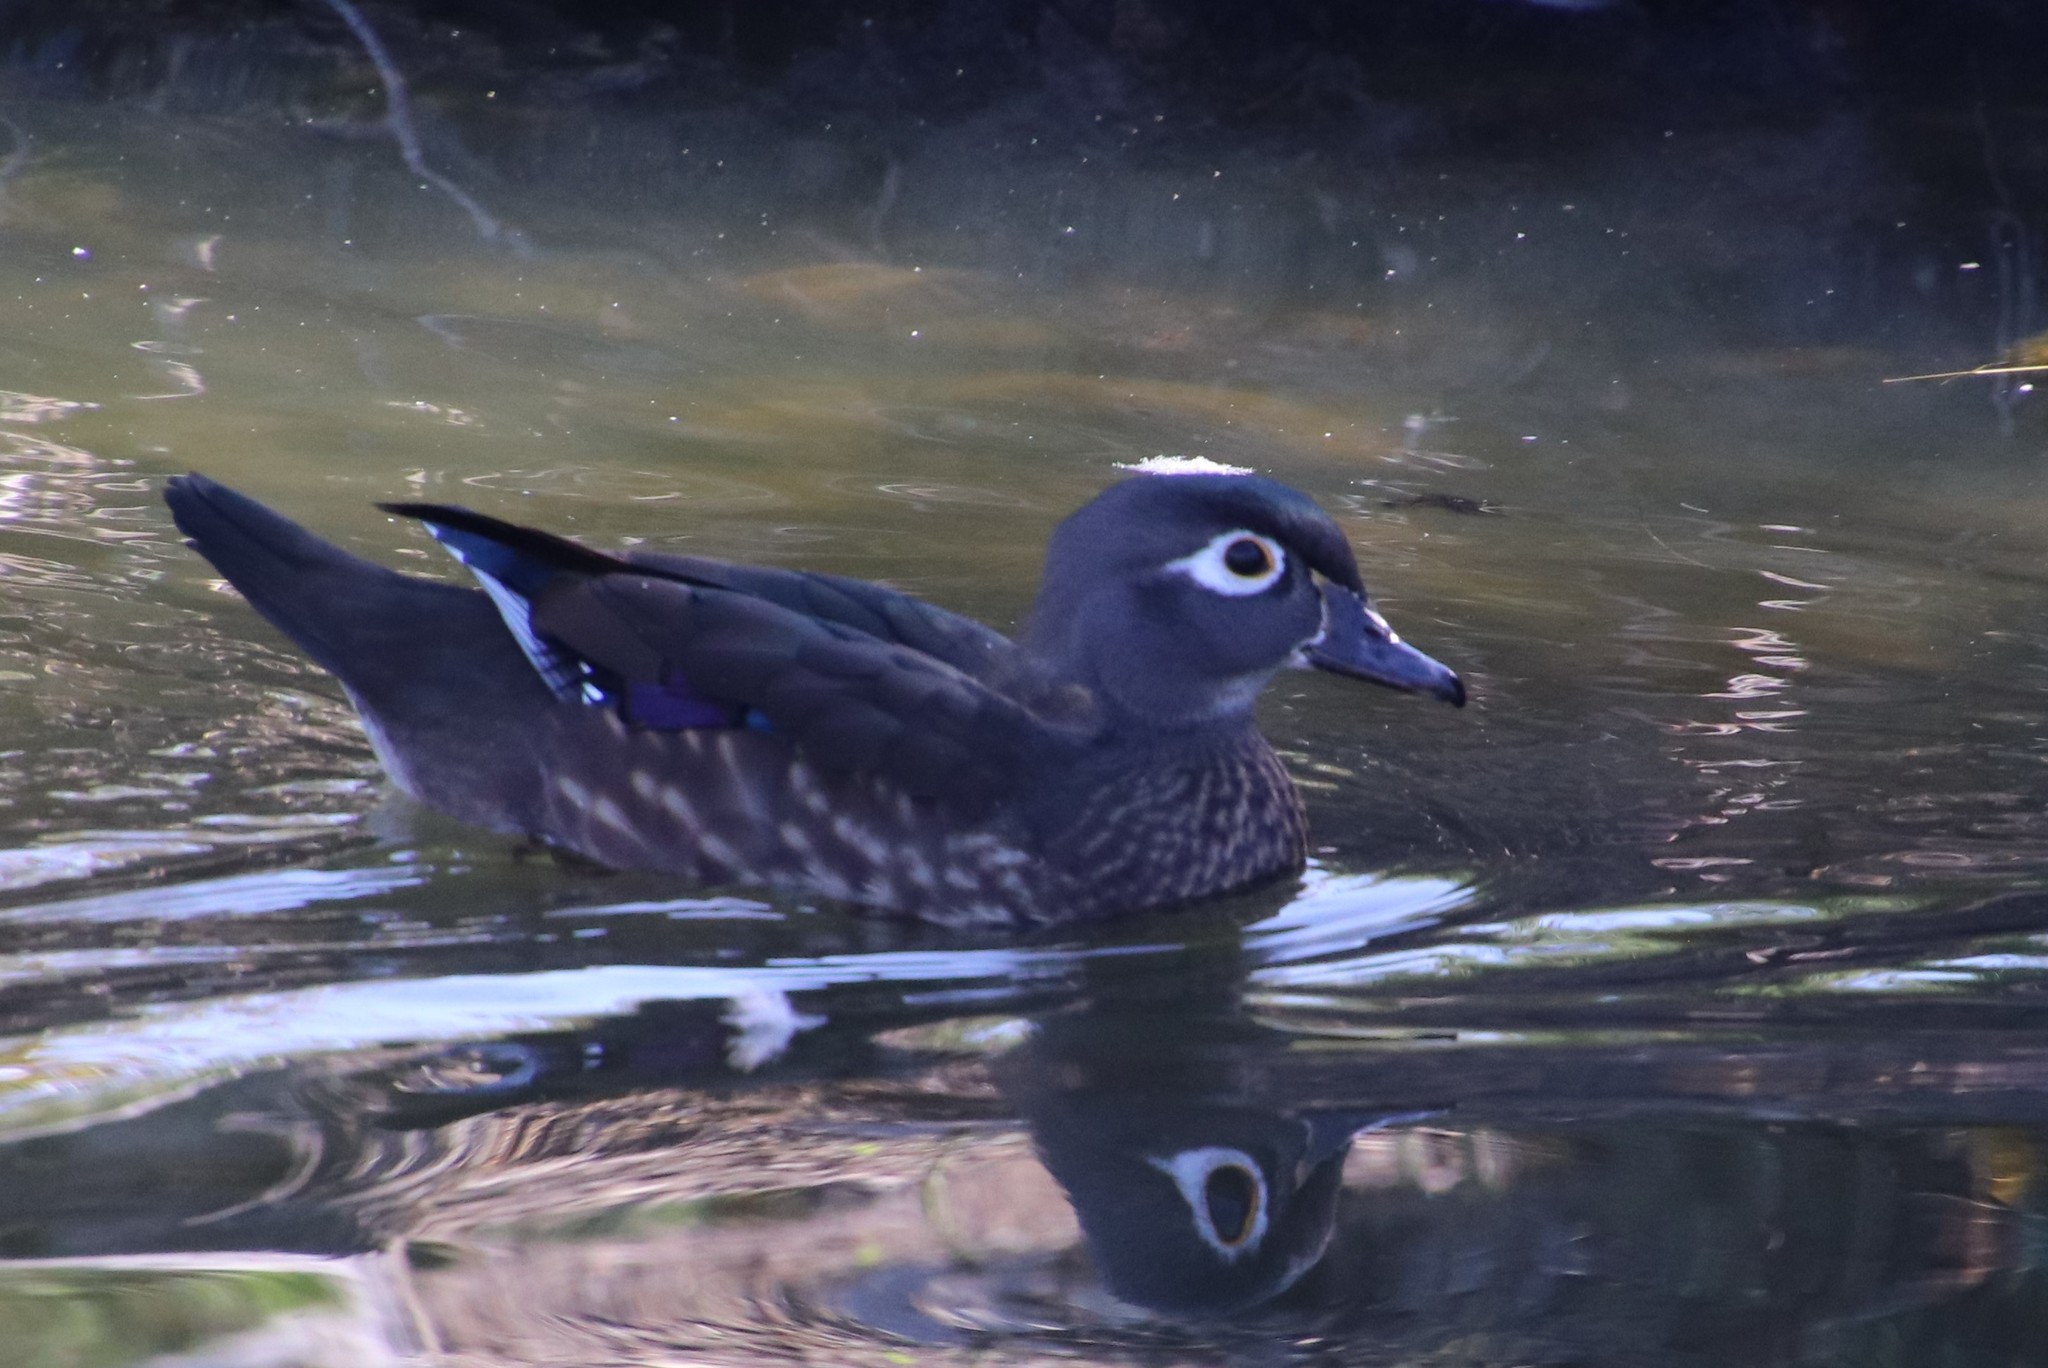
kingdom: Animalia
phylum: Chordata
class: Aves
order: Anseriformes
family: Anatidae
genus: Aix
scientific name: Aix sponsa
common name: Wood duck
